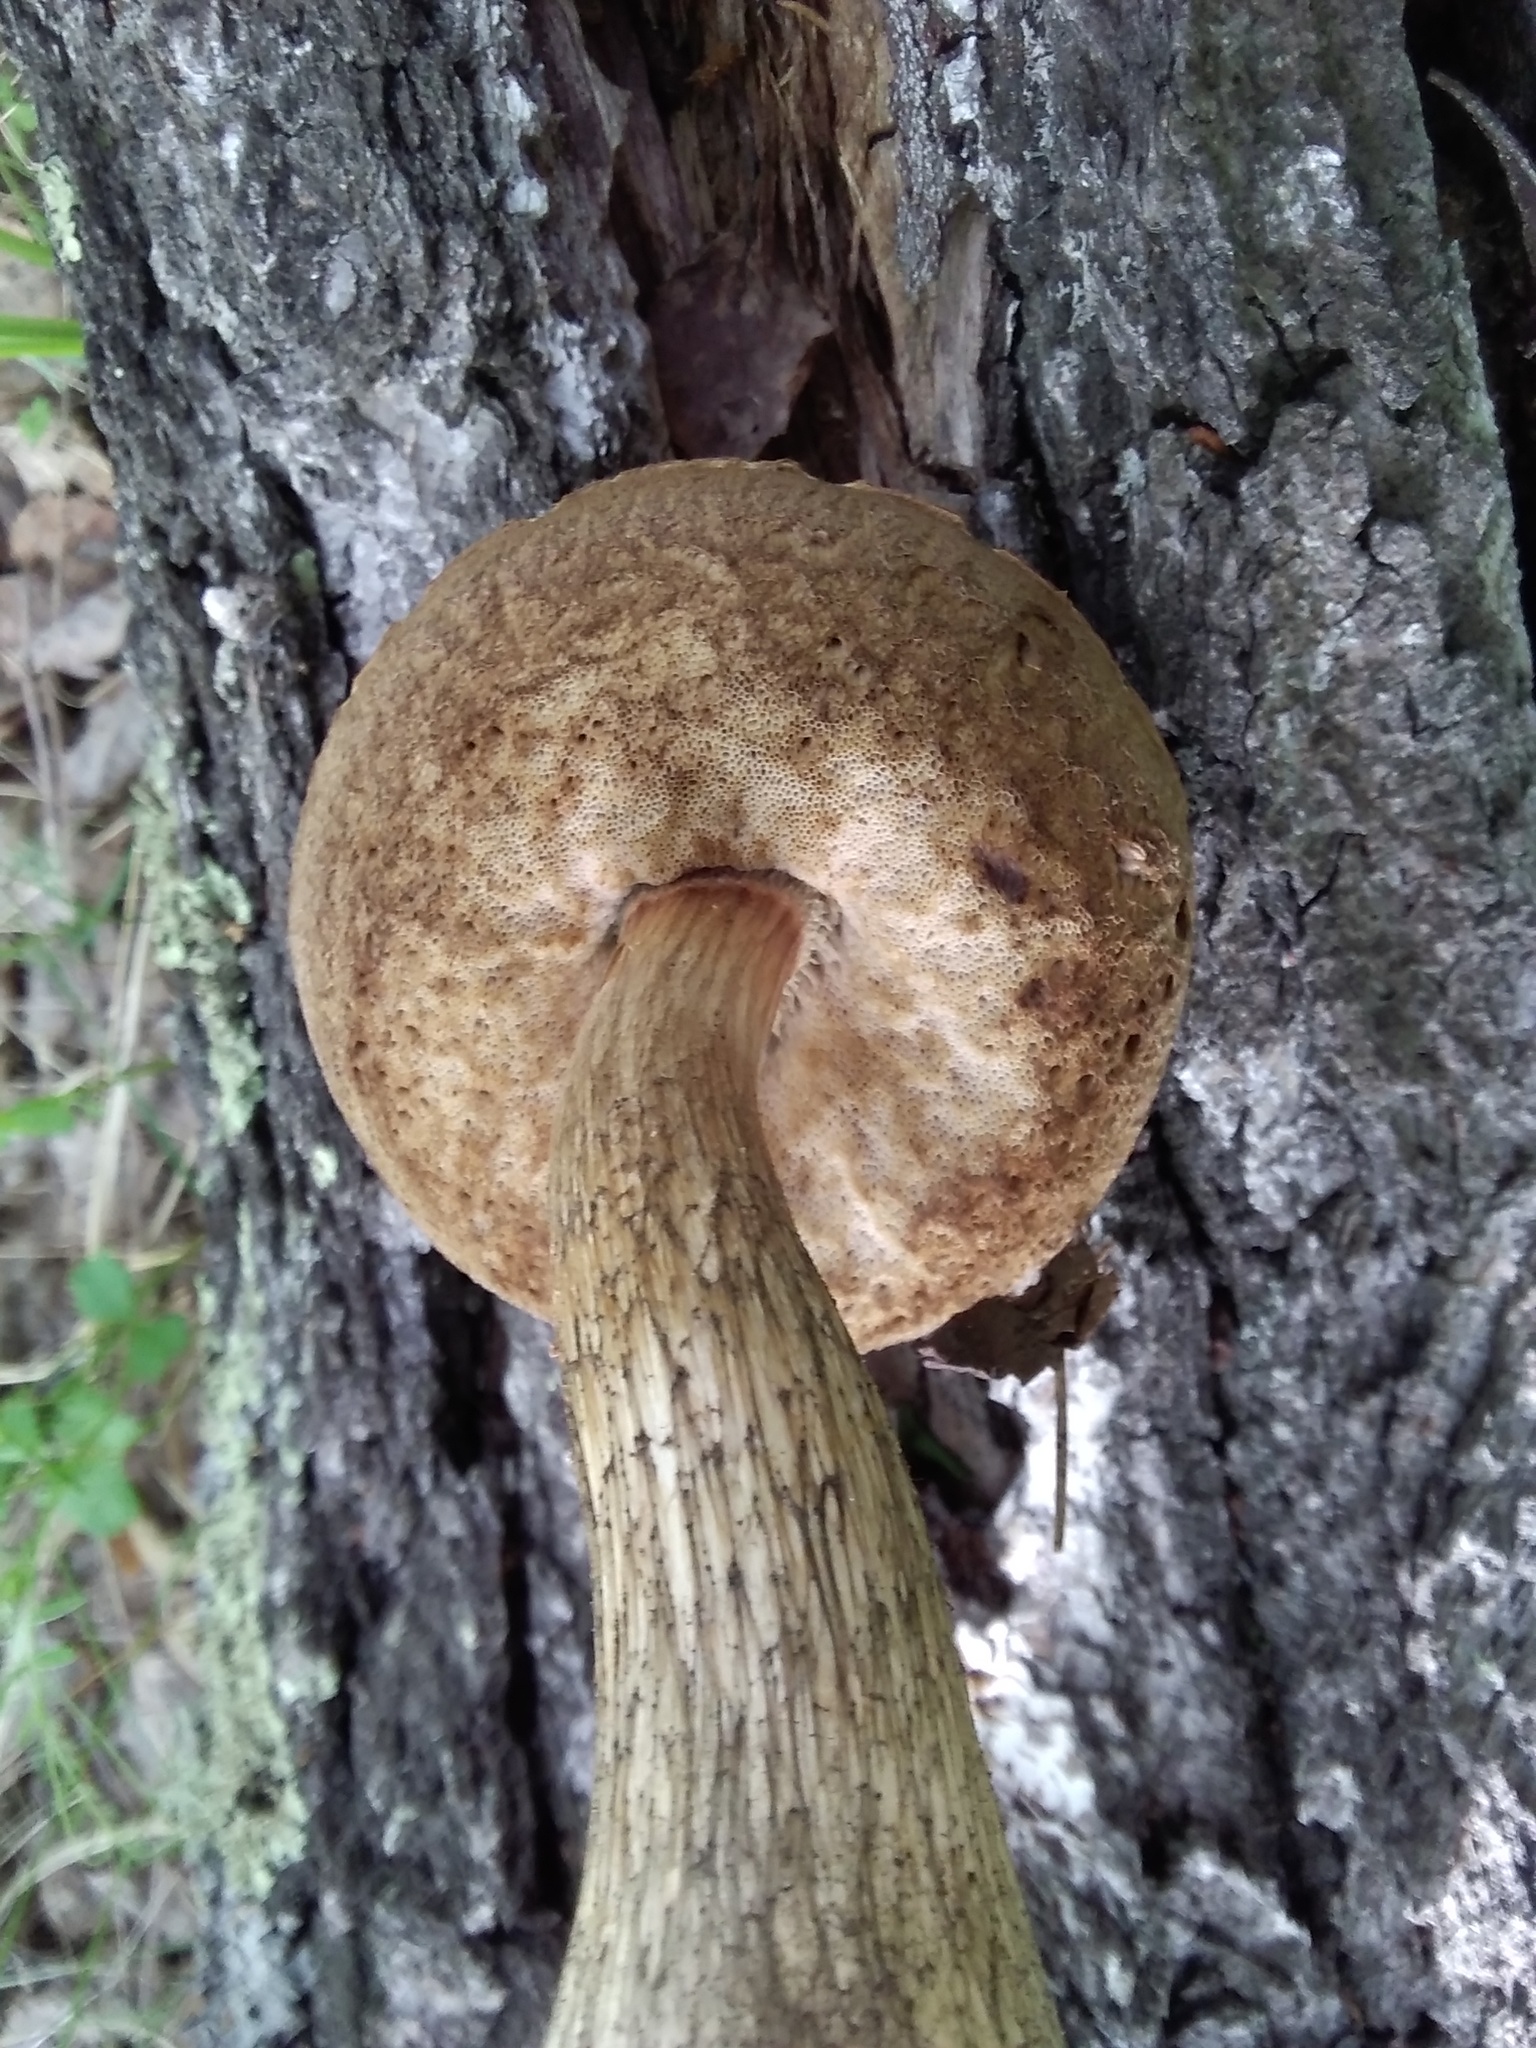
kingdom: Fungi
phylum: Basidiomycota
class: Agaricomycetes
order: Boletales
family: Boletaceae
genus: Leccinum
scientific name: Leccinum scabrum
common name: Blushing bolete
